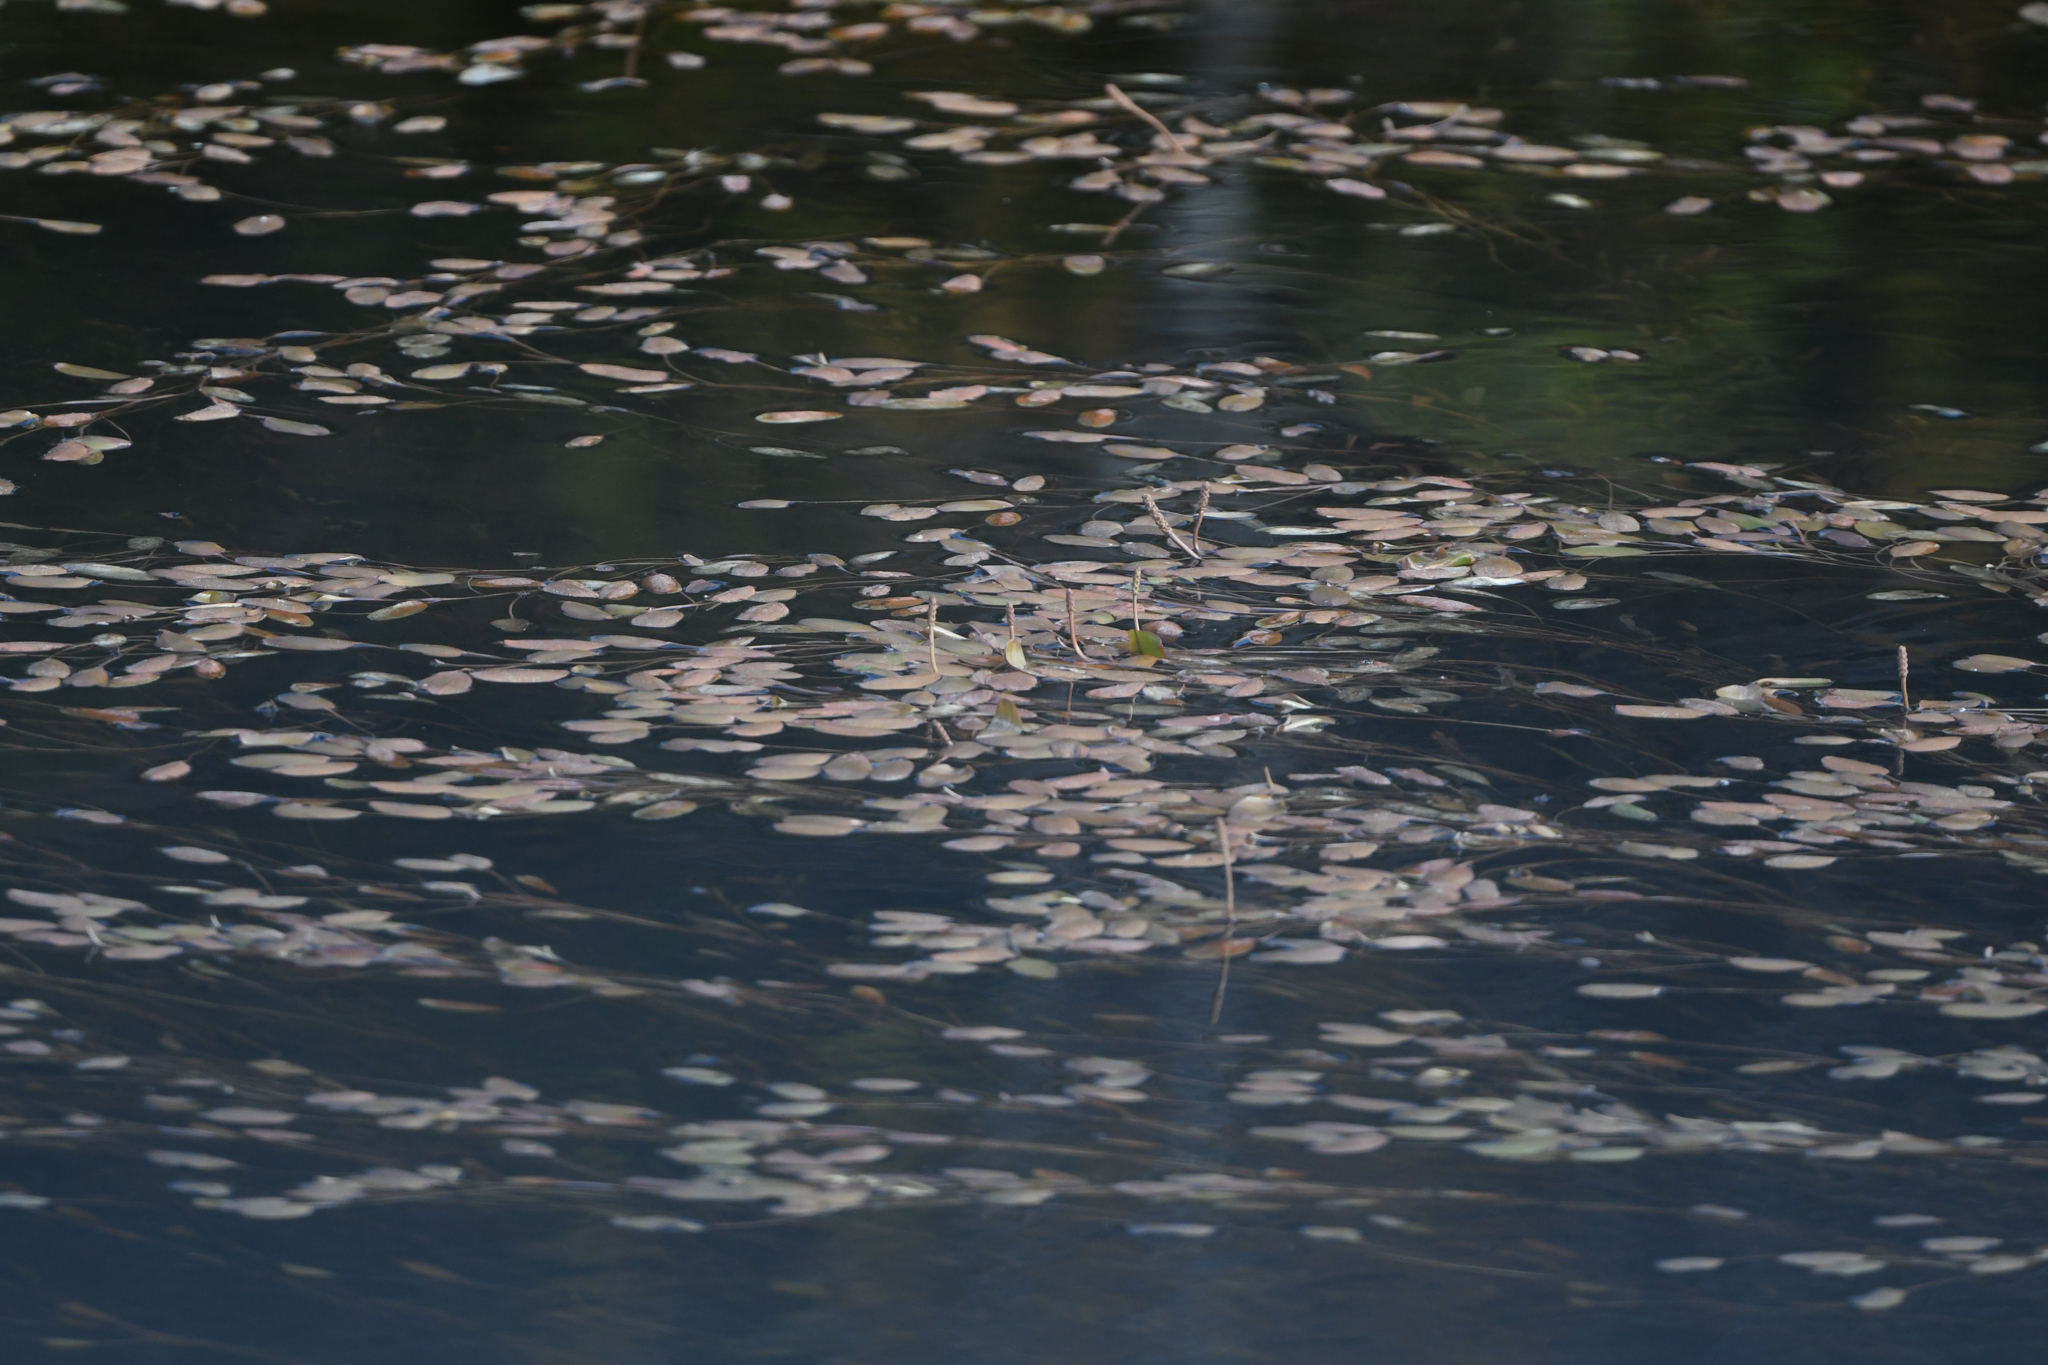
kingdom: Plantae
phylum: Tracheophyta
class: Liliopsida
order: Alismatales
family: Potamogetonaceae
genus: Potamogeton
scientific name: Potamogeton cheesemanii
